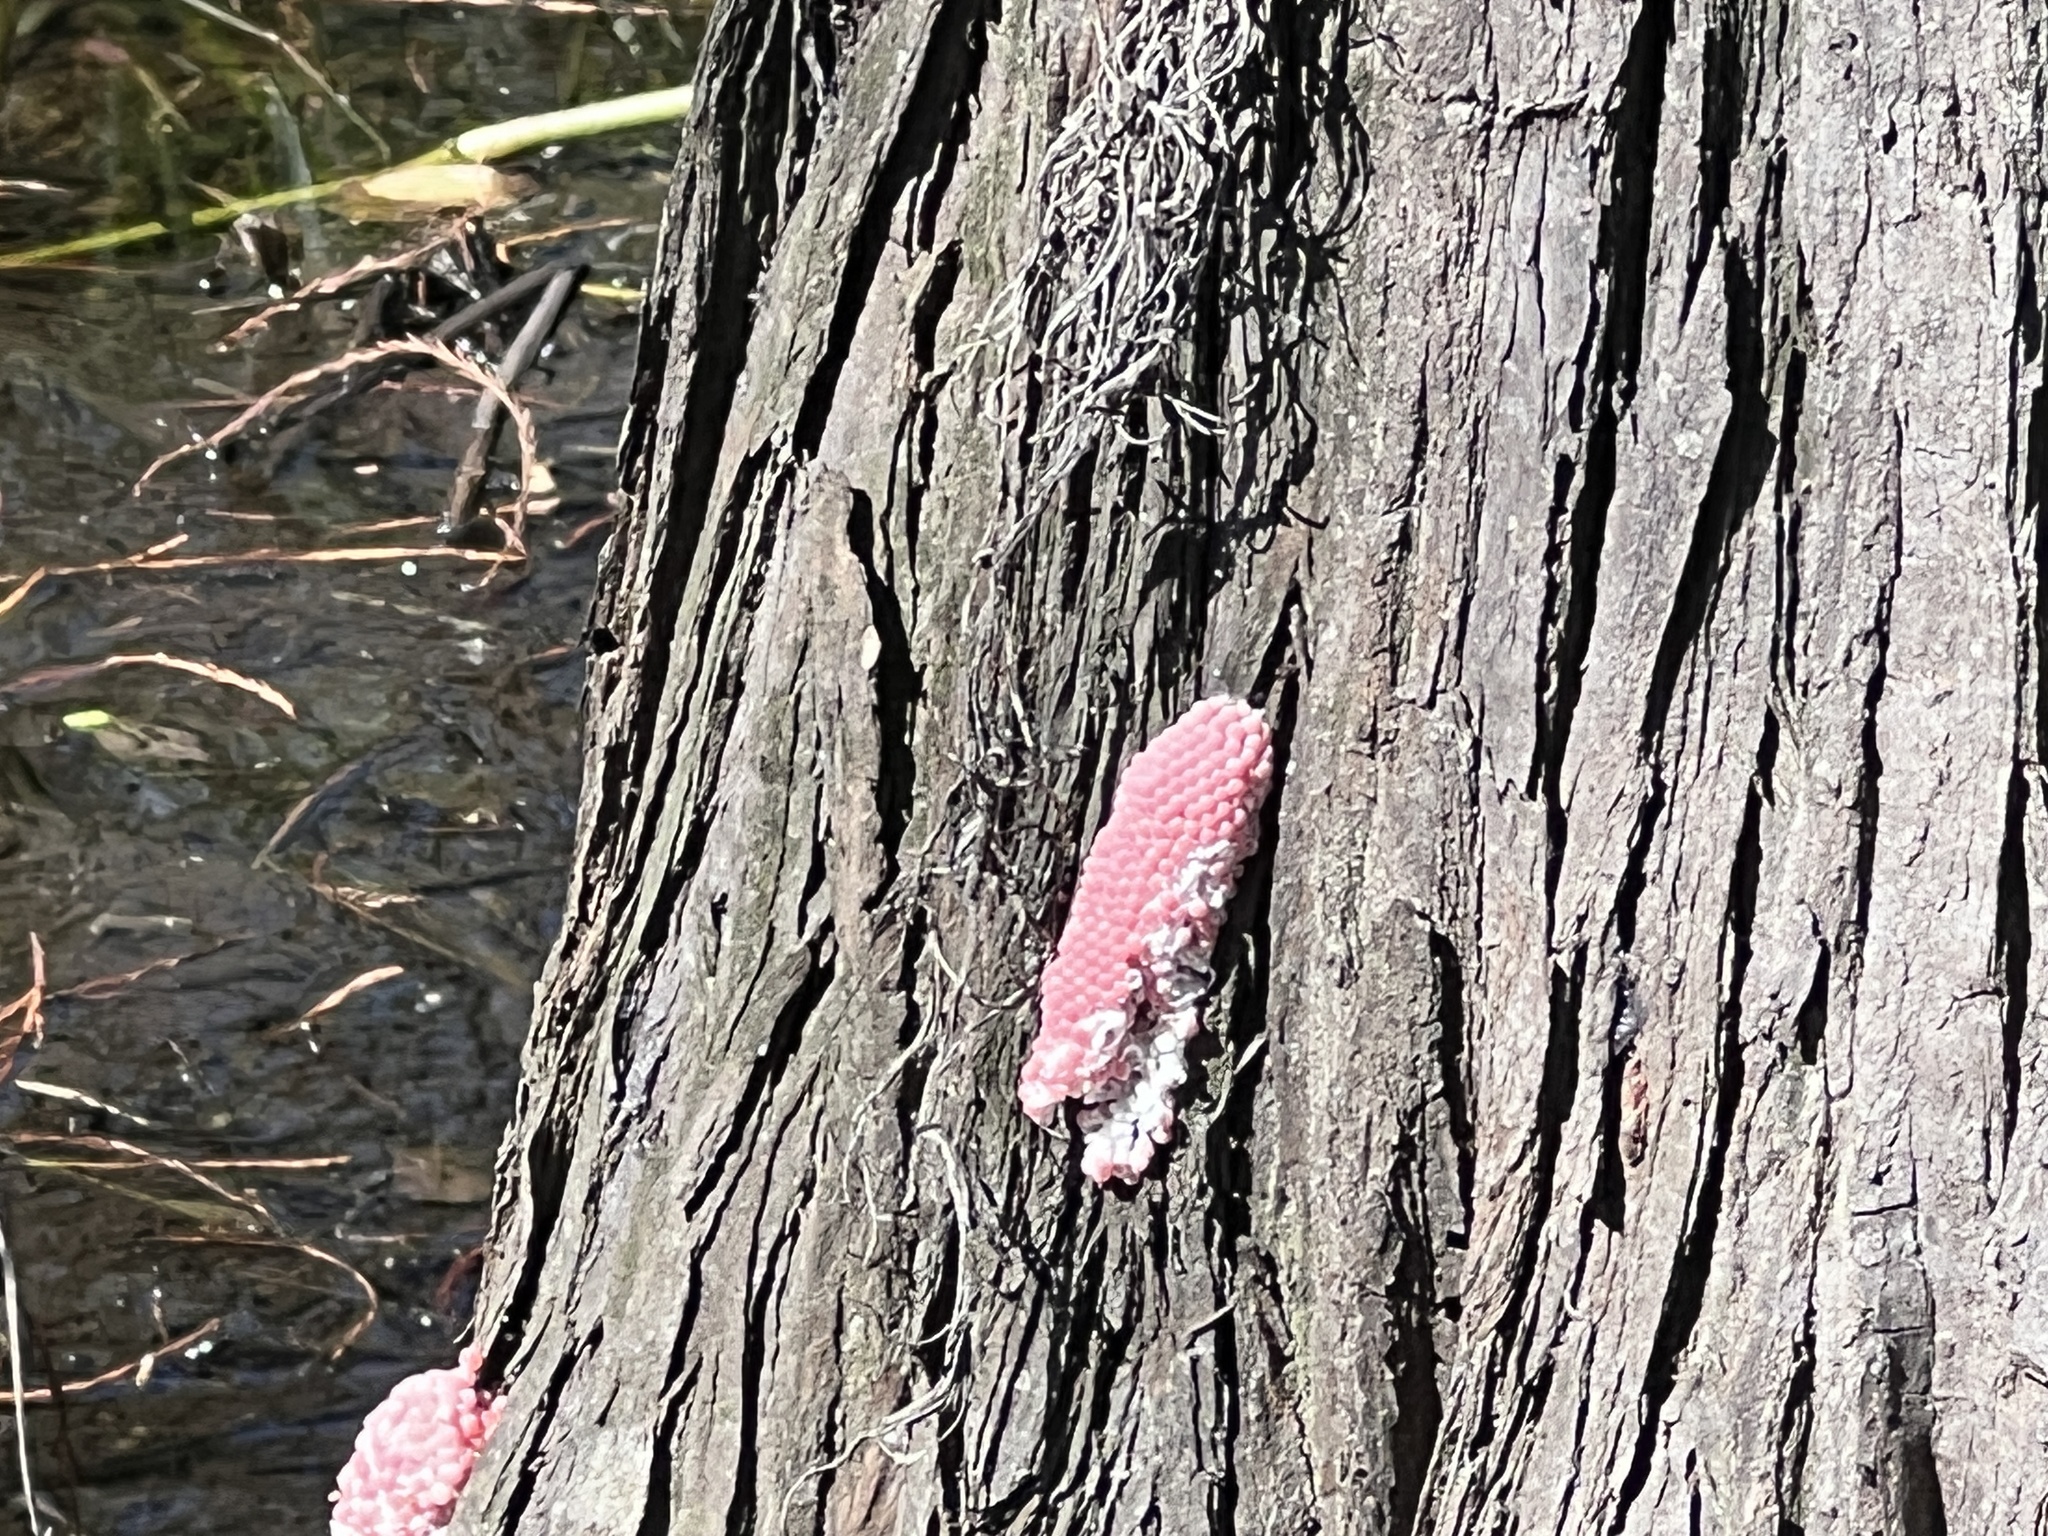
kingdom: Animalia
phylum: Mollusca
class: Gastropoda
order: Architaenioglossa
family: Ampullariidae
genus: Pomacea
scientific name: Pomacea maculata
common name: Giant applesnail
